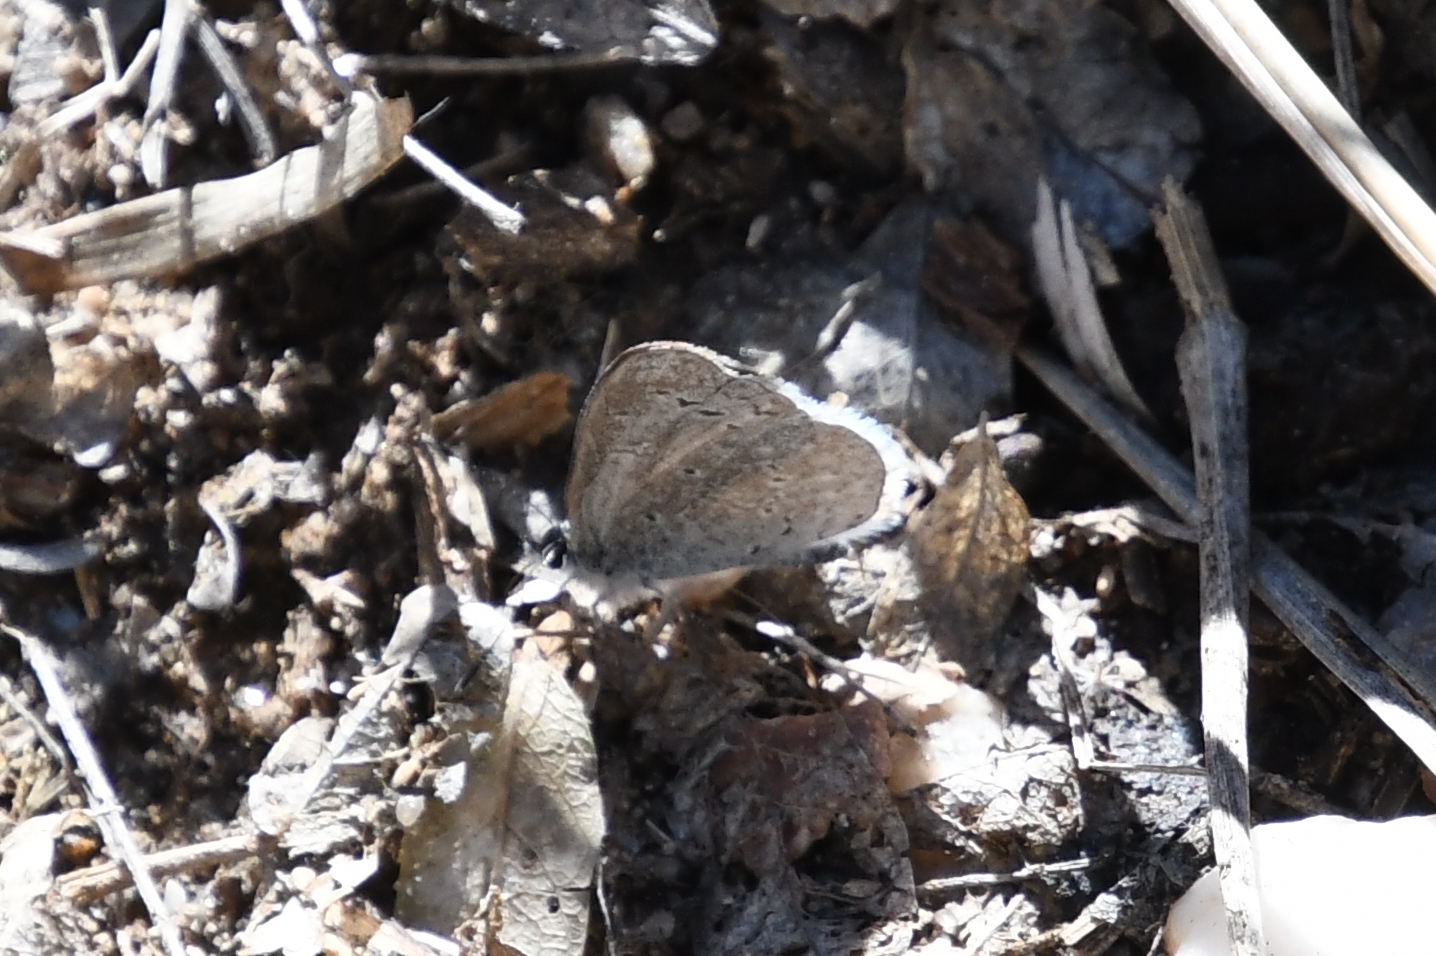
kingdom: Animalia
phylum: Arthropoda
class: Insecta
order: Lepidoptera
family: Lycaenidae
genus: Celastrina
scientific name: Celastrina ladon
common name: Spring azure
